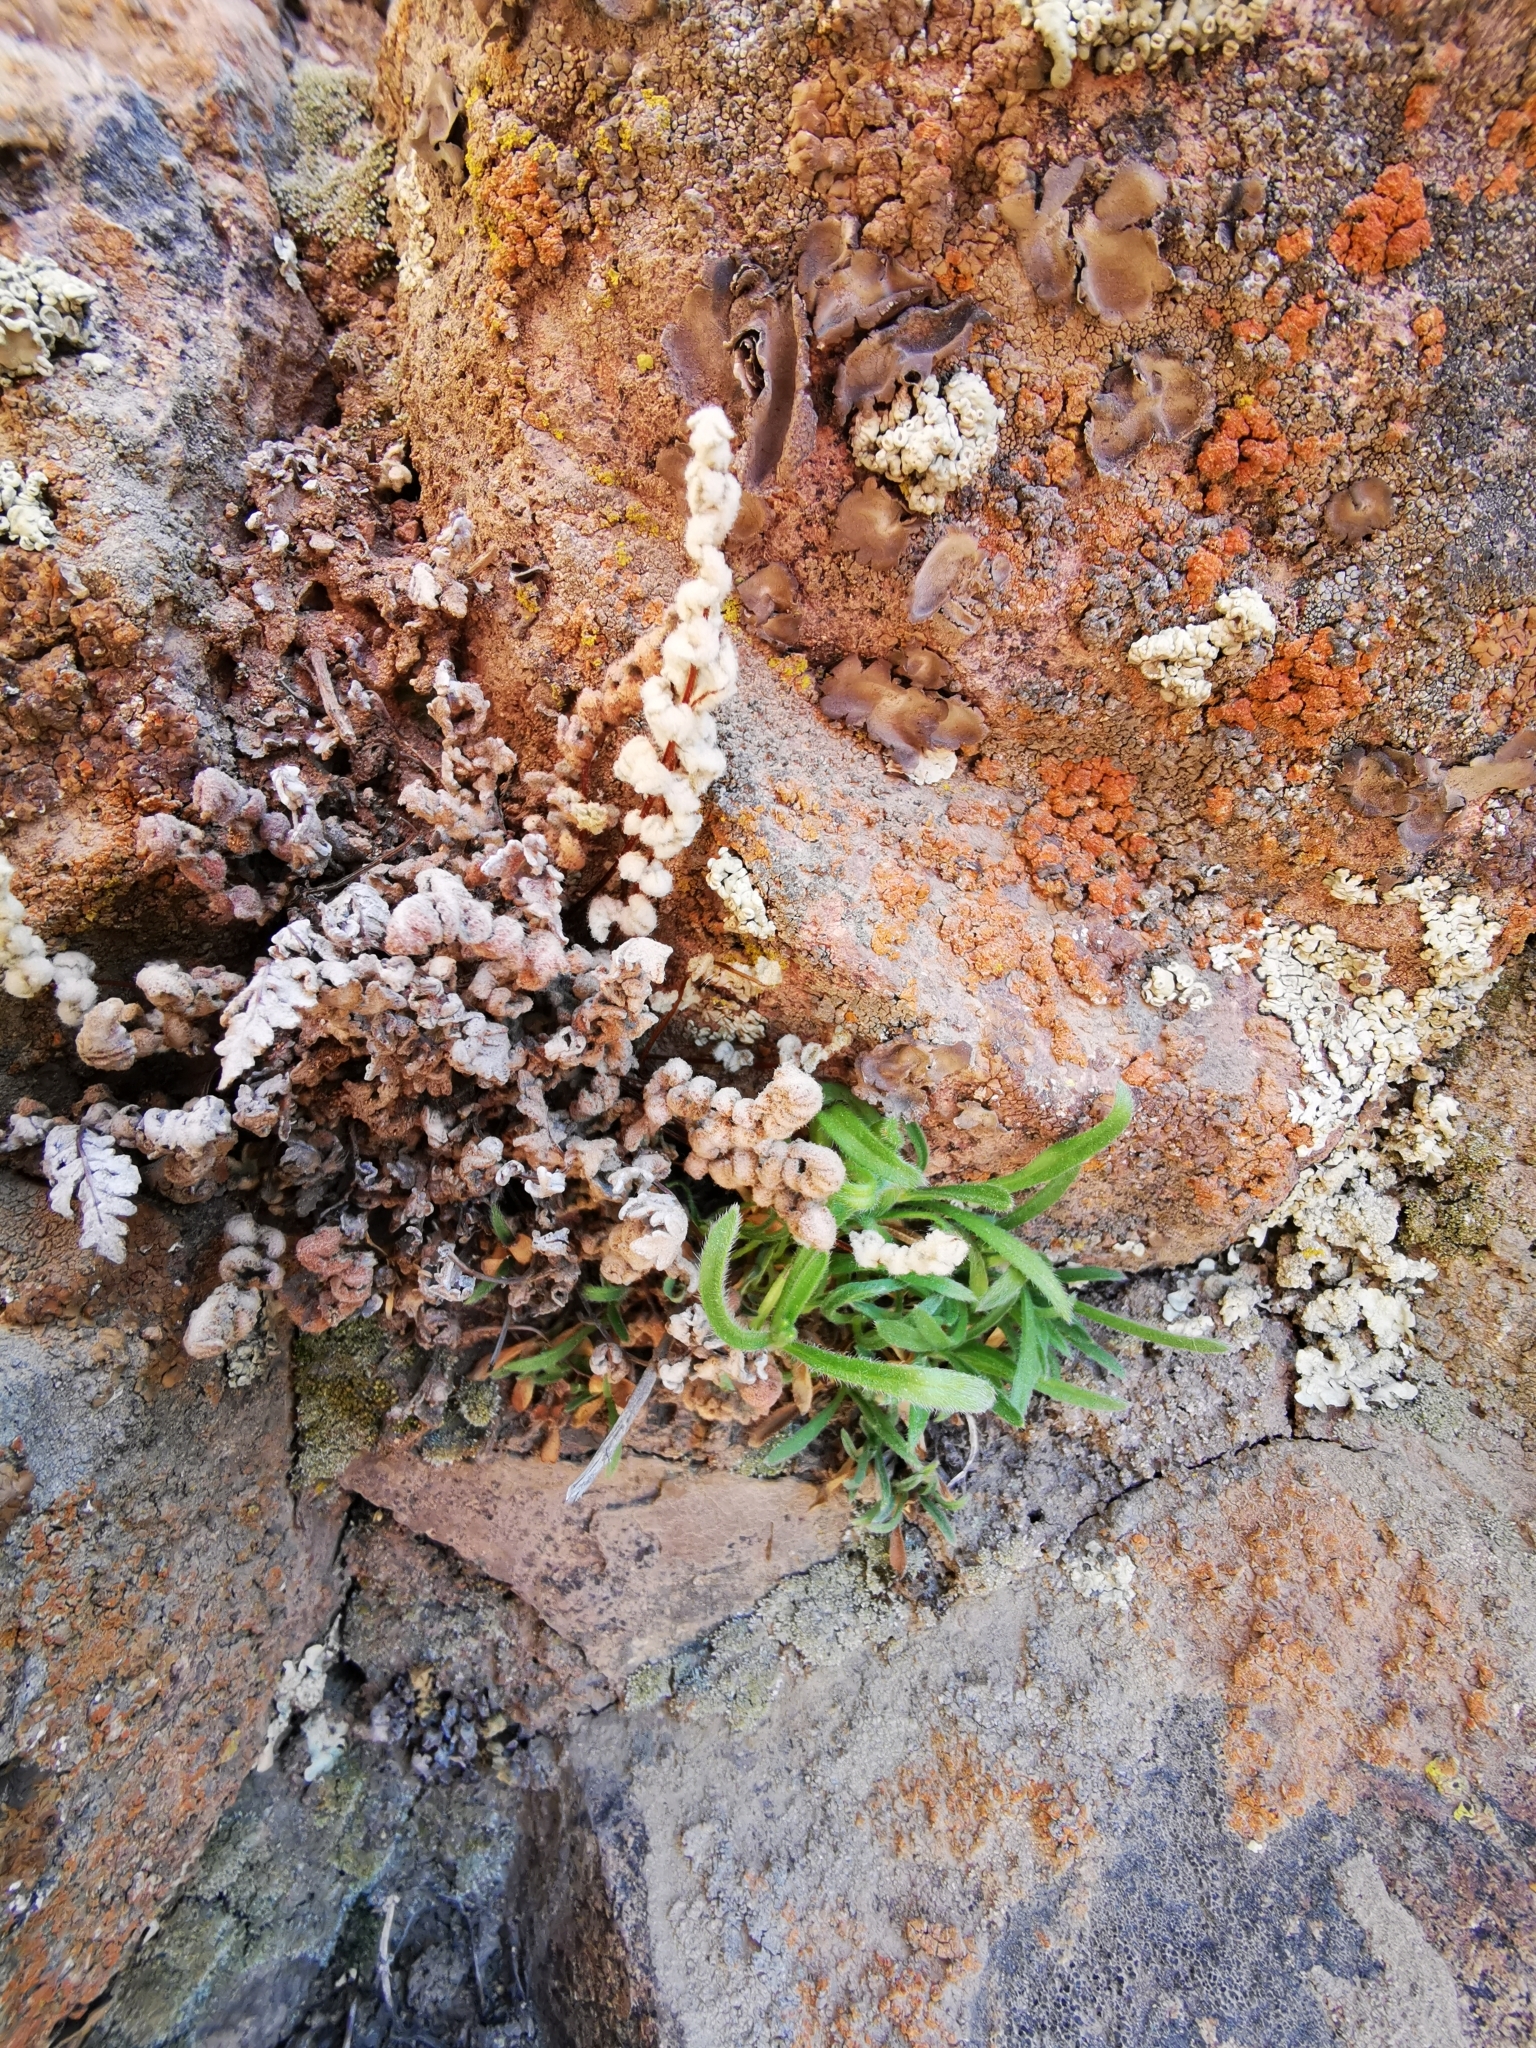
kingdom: Plantae
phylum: Tracheophyta
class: Polypodiopsida
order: Polypodiales
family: Pteridaceae
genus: Cheilanthes
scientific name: Cheilanthes hypoleuca
